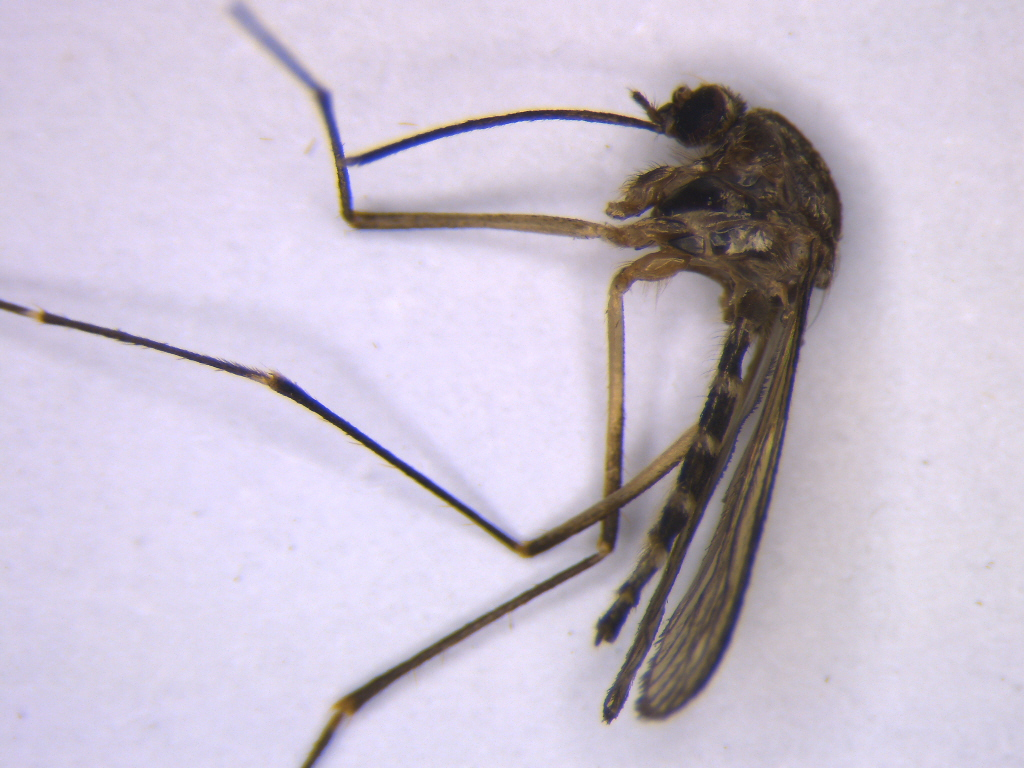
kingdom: Animalia
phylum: Arthropoda
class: Insecta
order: Diptera
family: Culicidae
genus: Aedes
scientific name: Aedes antipodeus
